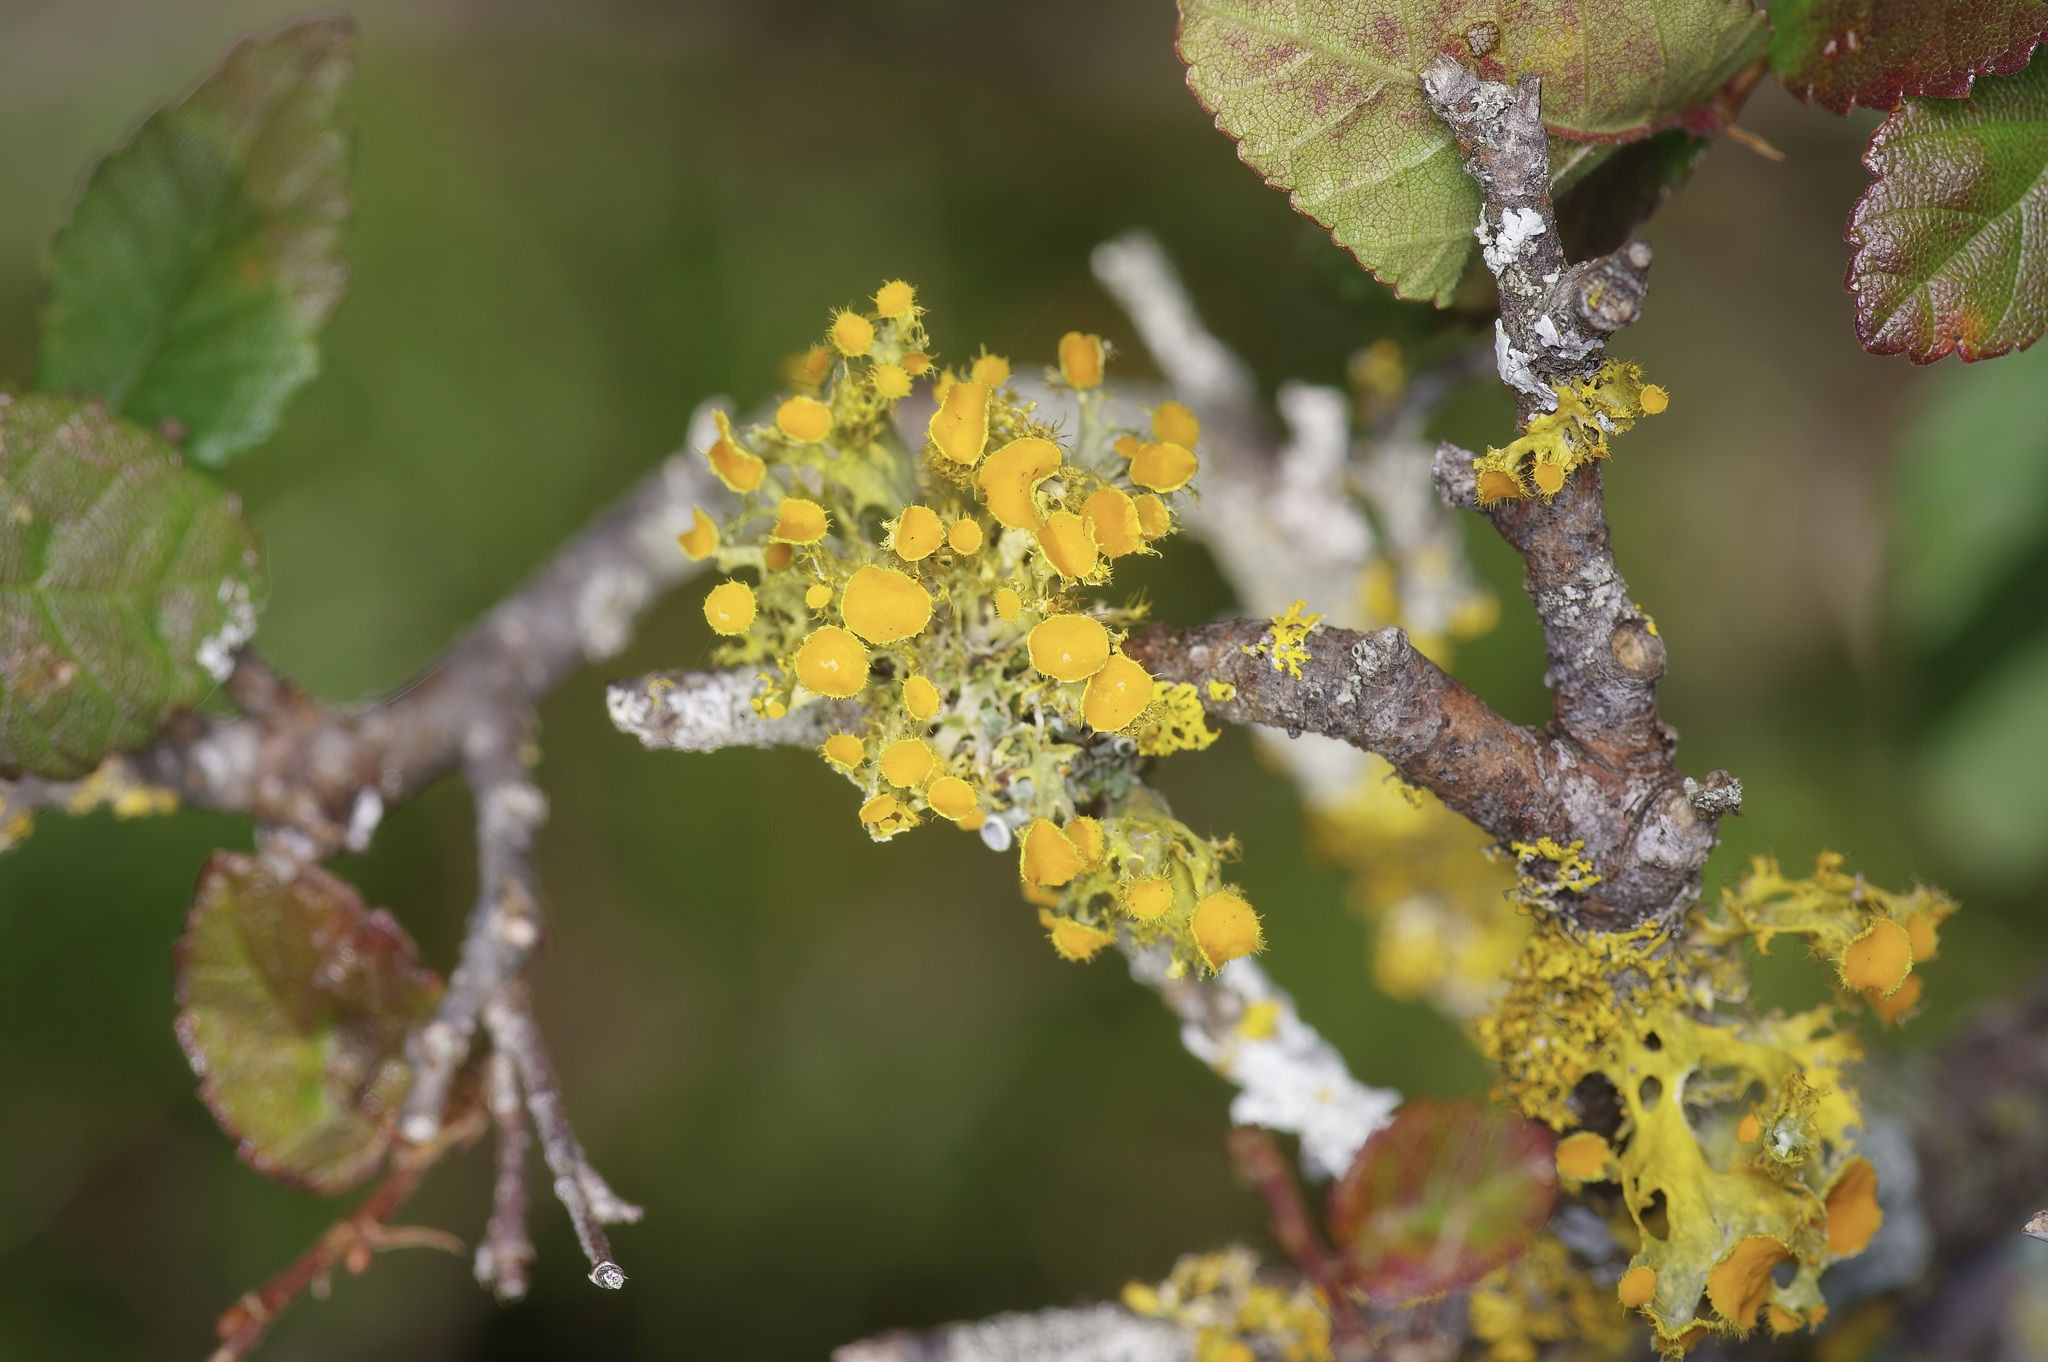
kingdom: Fungi
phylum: Ascomycota
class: Lecanoromycetes
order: Teloschistales
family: Teloschistaceae
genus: Niorma
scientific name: Niorma chrysophthalma
